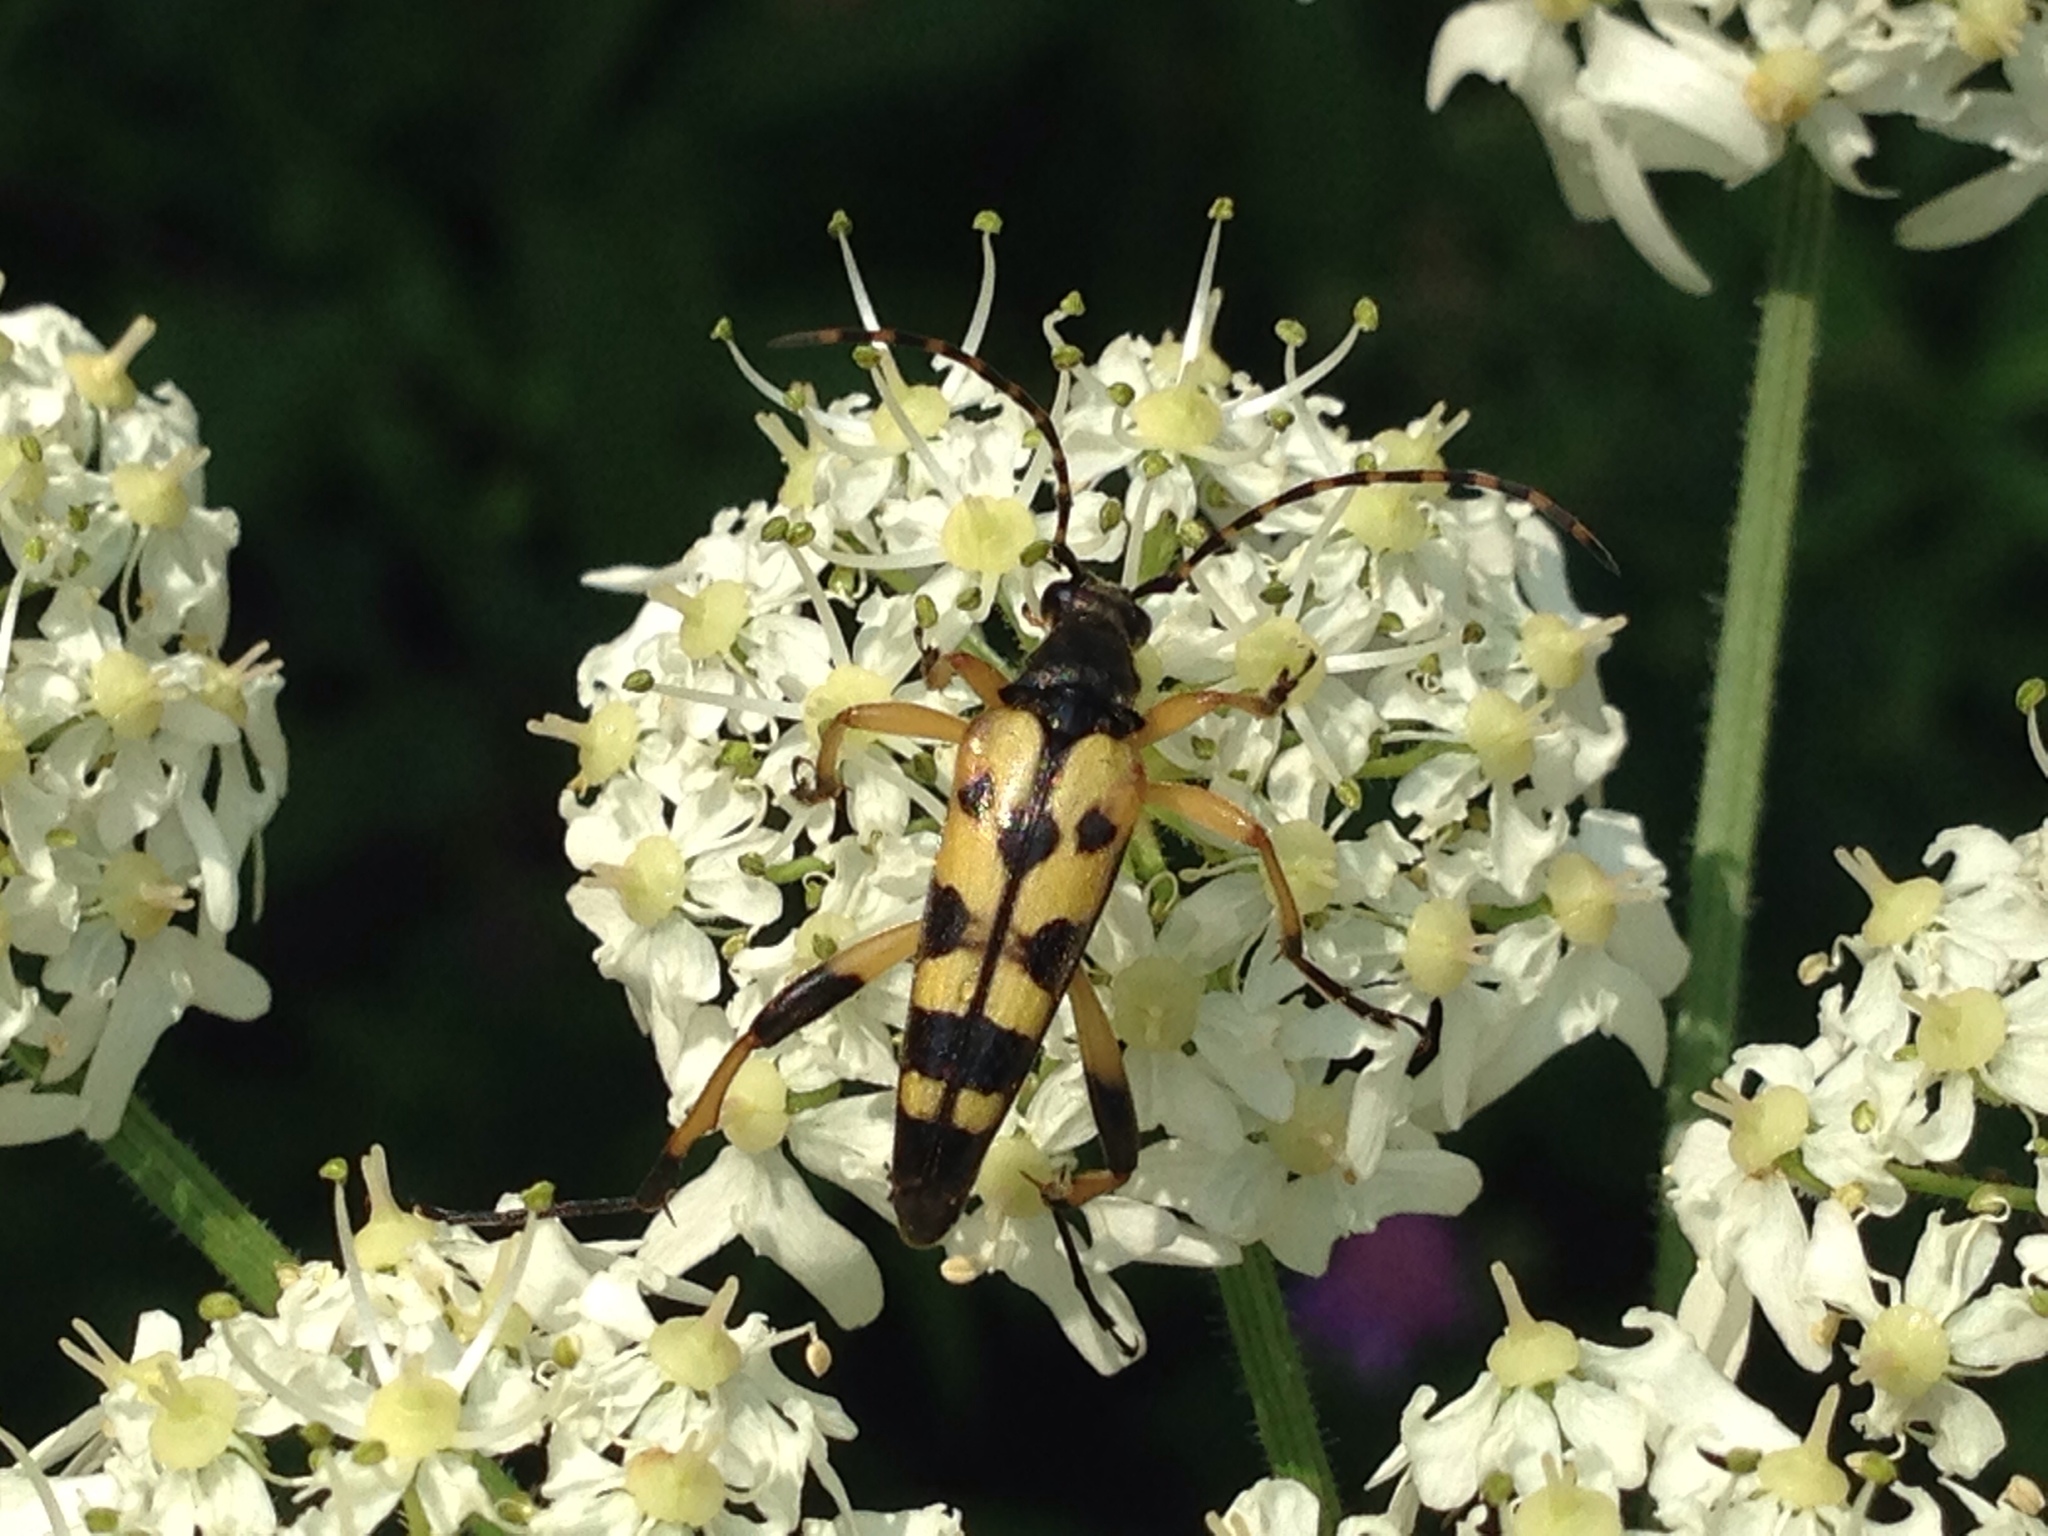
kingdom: Animalia
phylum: Arthropoda
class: Insecta
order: Coleoptera
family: Cerambycidae
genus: Rutpela
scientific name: Rutpela maculata
